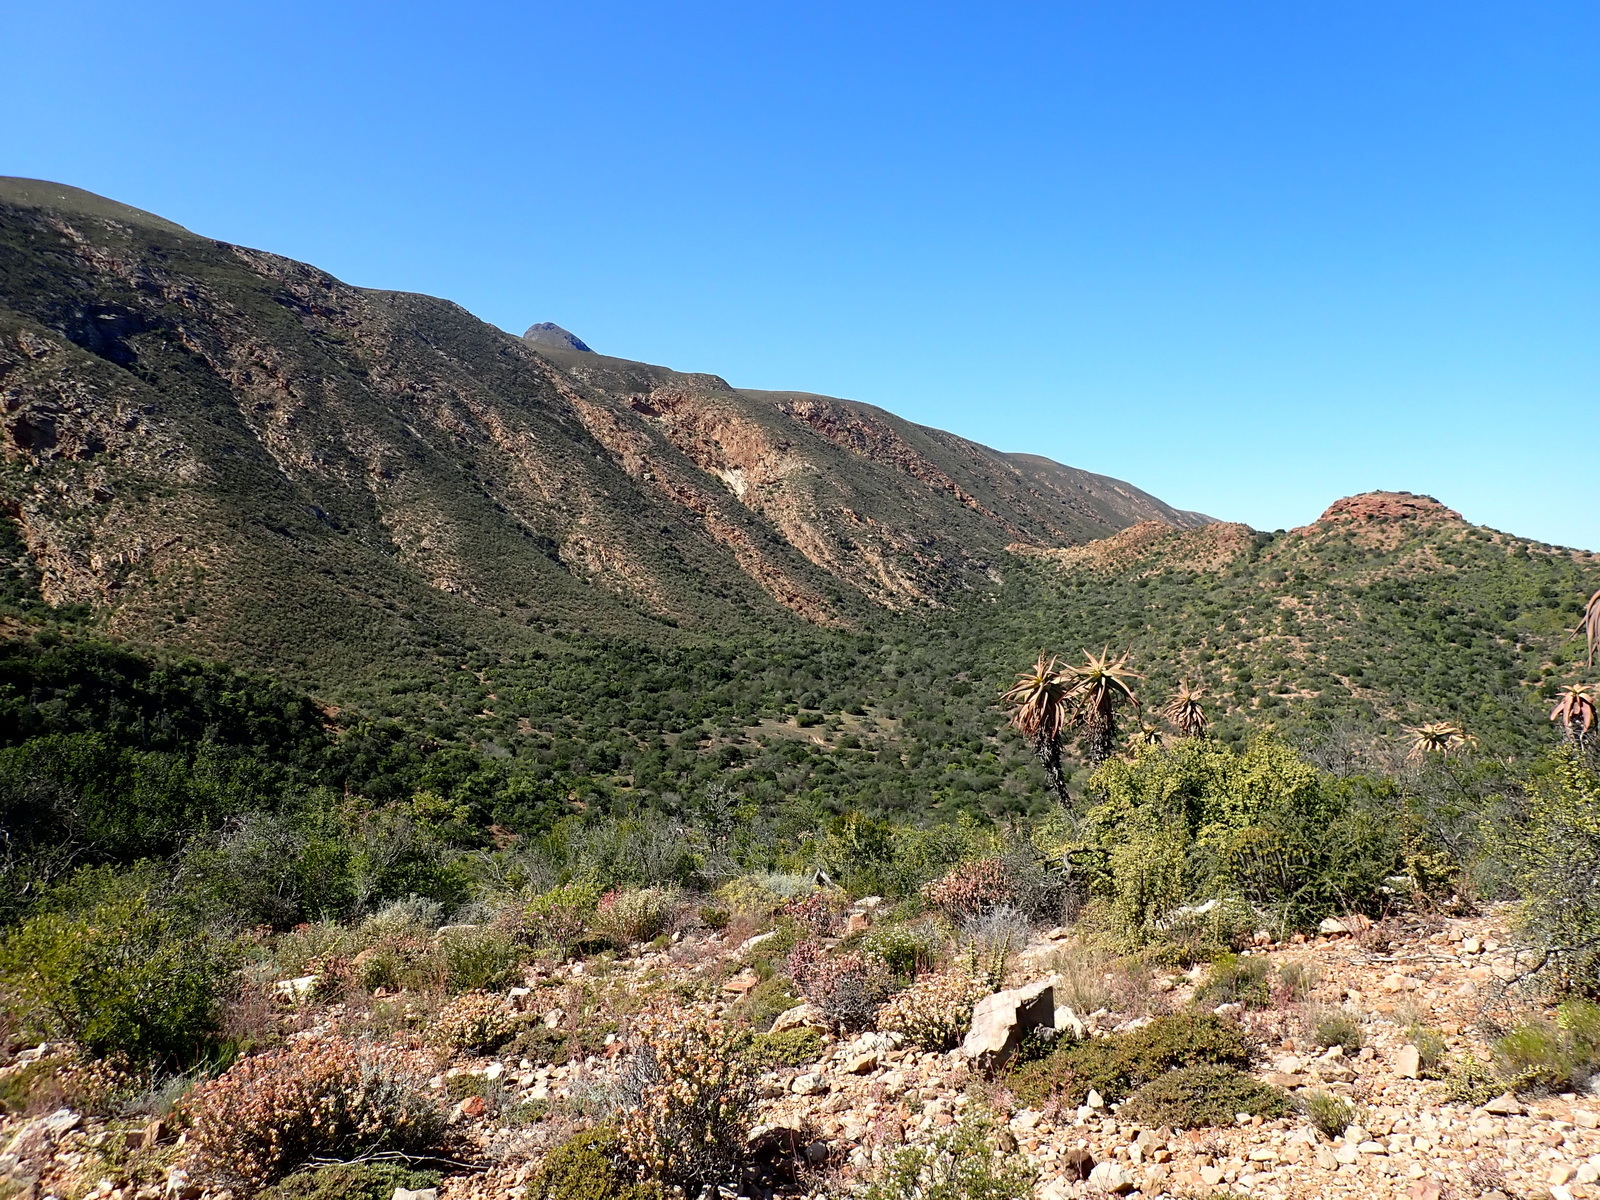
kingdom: Plantae
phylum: Tracheophyta
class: Liliopsida
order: Asparagales
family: Asphodelaceae
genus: Aloe
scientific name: Aloe speciosa
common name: Beautiful aloe
